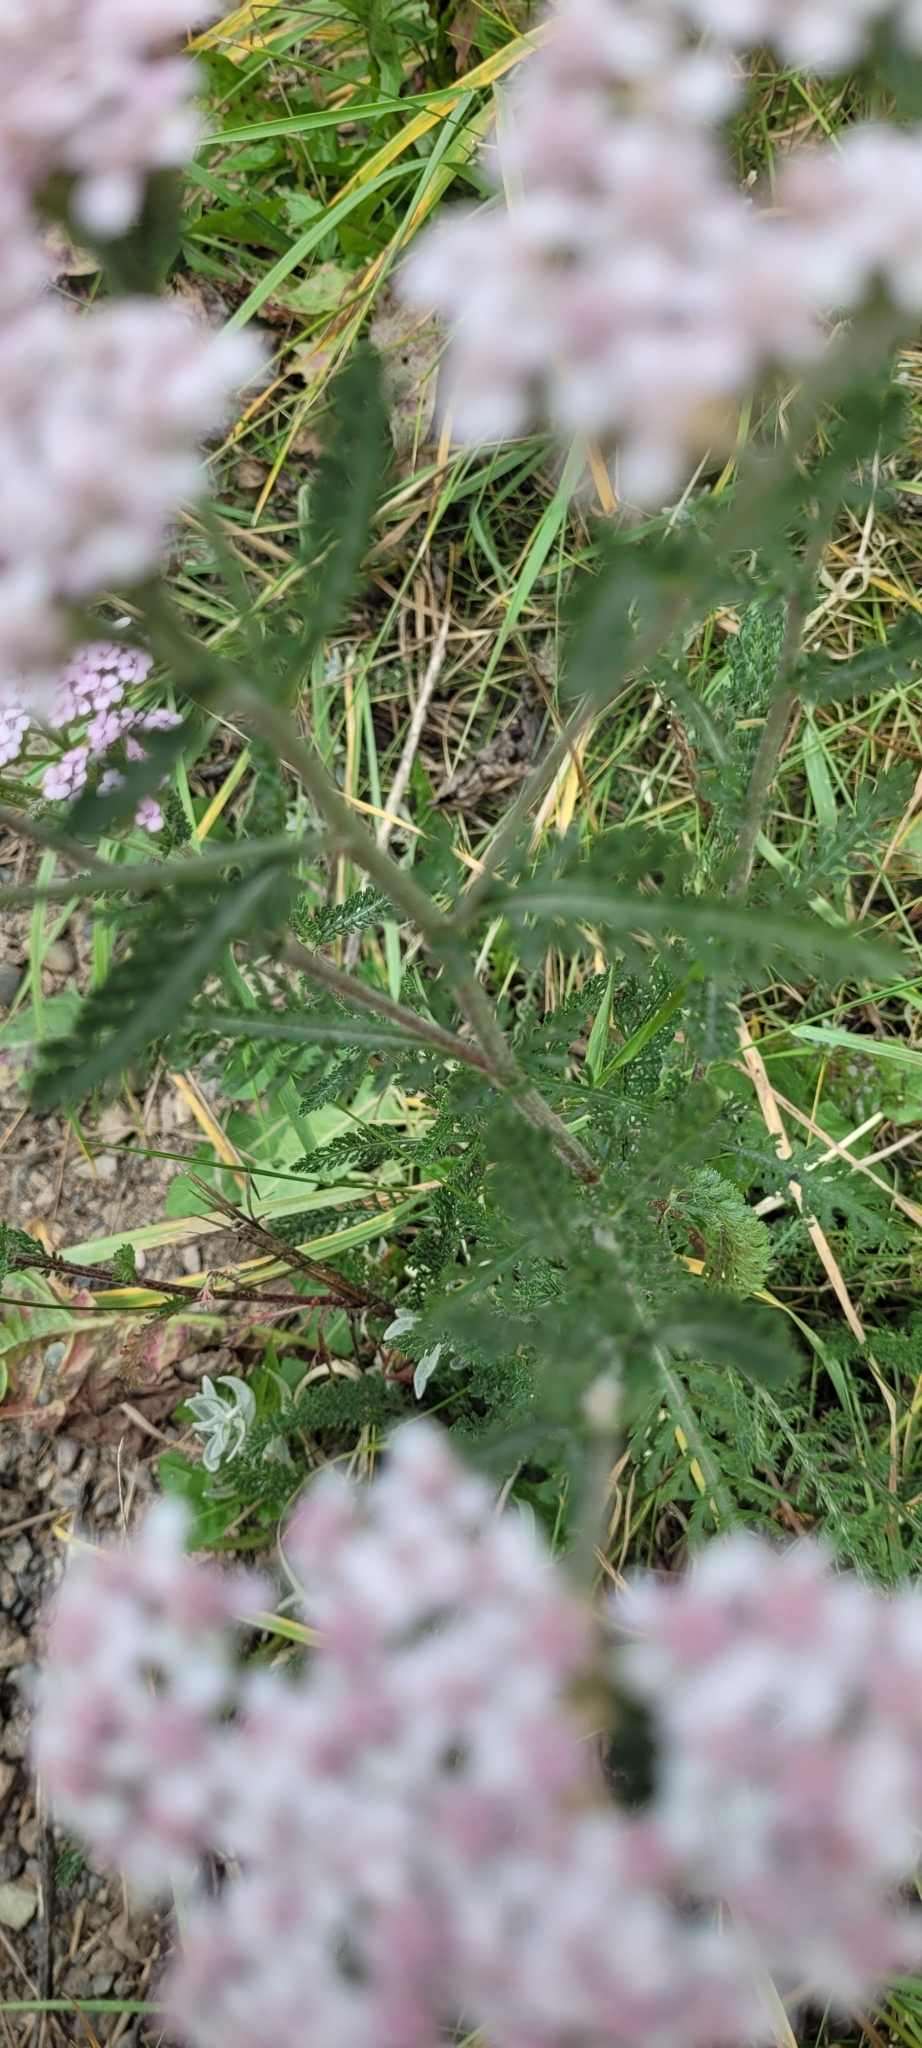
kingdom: Plantae
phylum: Tracheophyta
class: Magnoliopsida
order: Asterales
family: Asteraceae
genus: Achillea
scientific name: Achillea millefolium
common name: Yarrow
